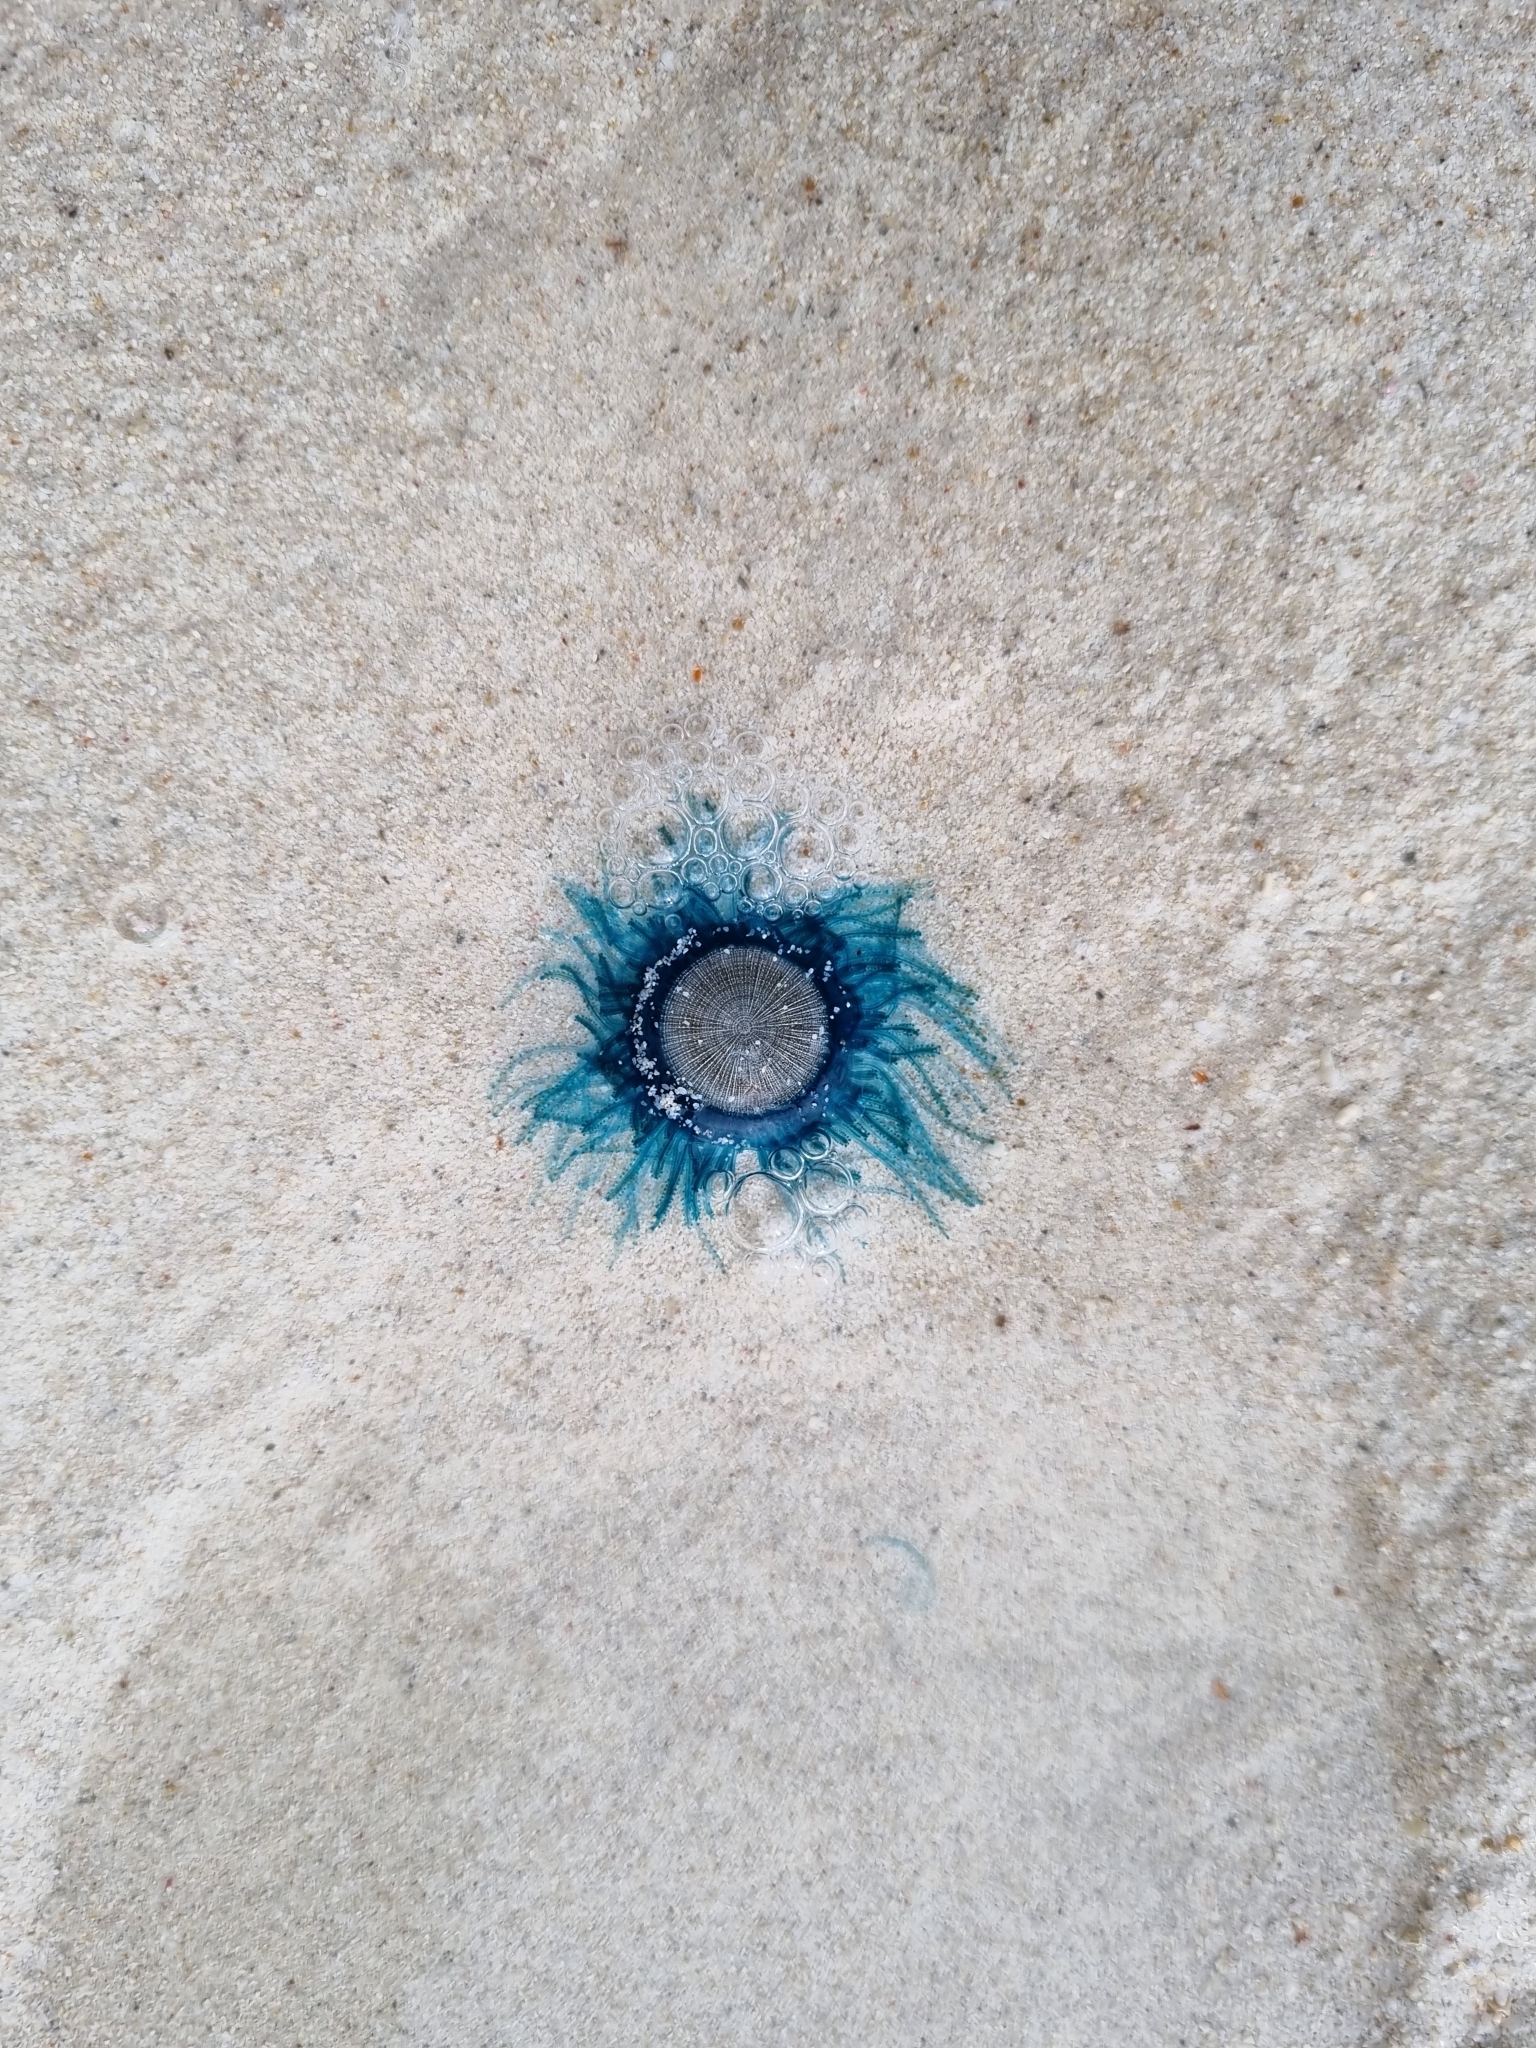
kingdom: Animalia
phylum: Cnidaria
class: Hydrozoa
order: Anthoathecata
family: Porpitidae
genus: Porpita
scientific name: Porpita porpita
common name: Blue button
